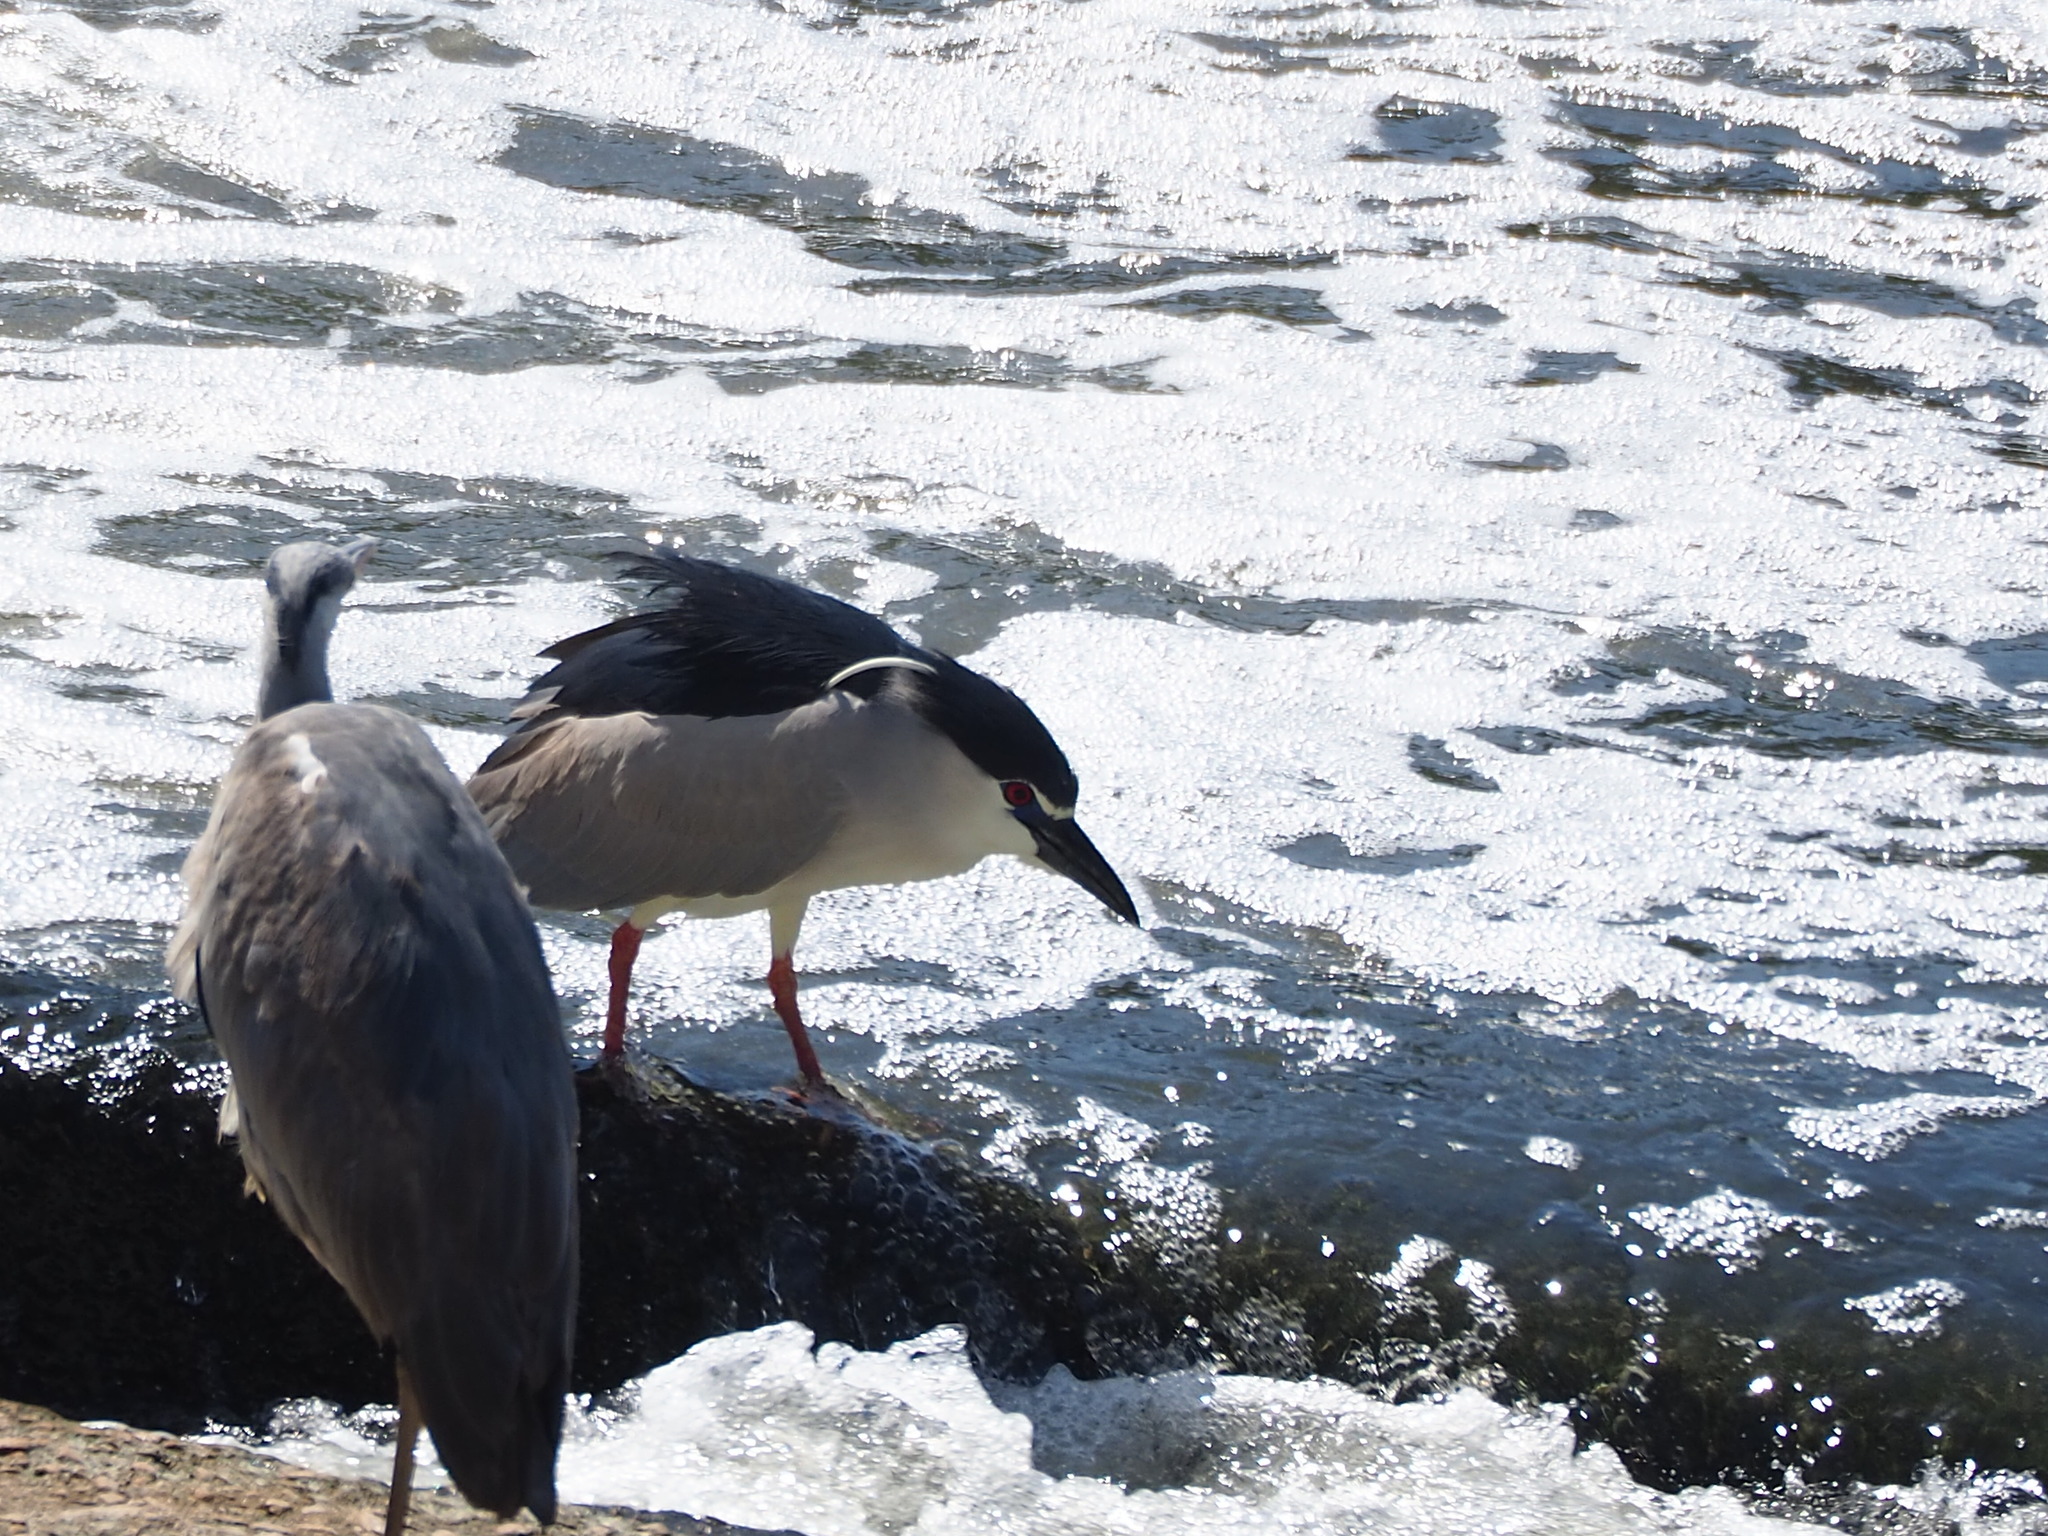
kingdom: Animalia
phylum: Chordata
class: Aves
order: Pelecaniformes
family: Ardeidae
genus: Nycticorax
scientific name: Nycticorax nycticorax
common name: Black-crowned night heron
